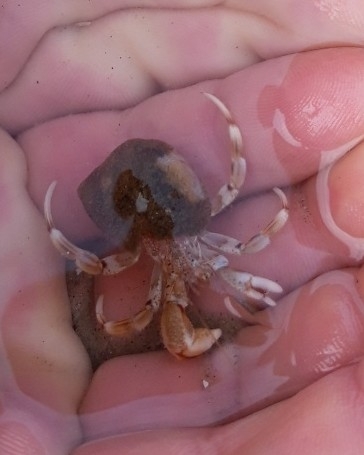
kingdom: Animalia
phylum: Arthropoda
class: Malacostraca
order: Decapoda
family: Diogenidae
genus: Diogenes
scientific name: Diogenes pugilator
